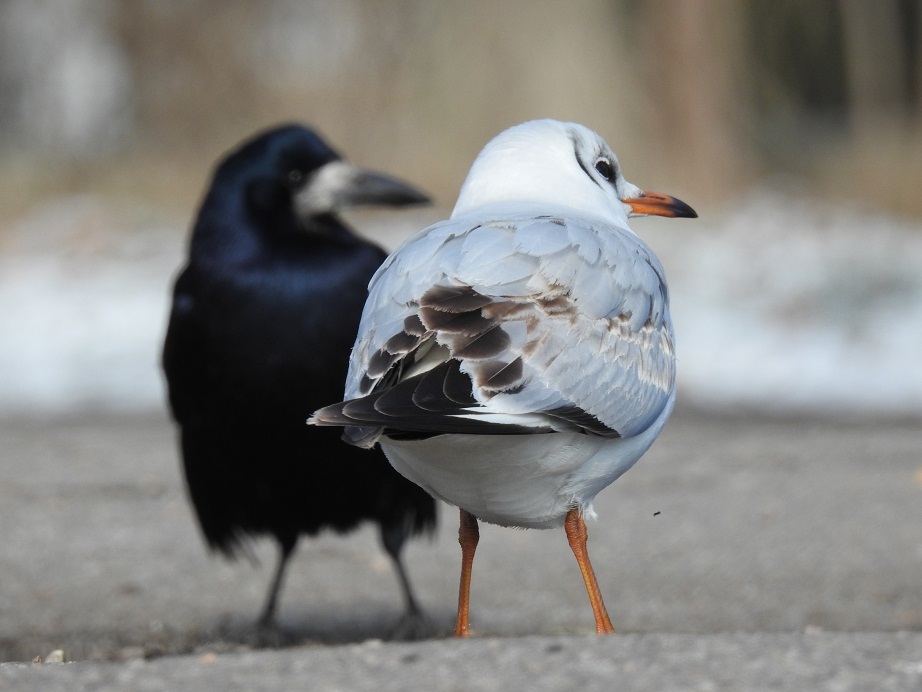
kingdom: Animalia
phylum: Chordata
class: Aves
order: Charadriiformes
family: Laridae
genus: Chroicocephalus
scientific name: Chroicocephalus ridibundus
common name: Black-headed gull
